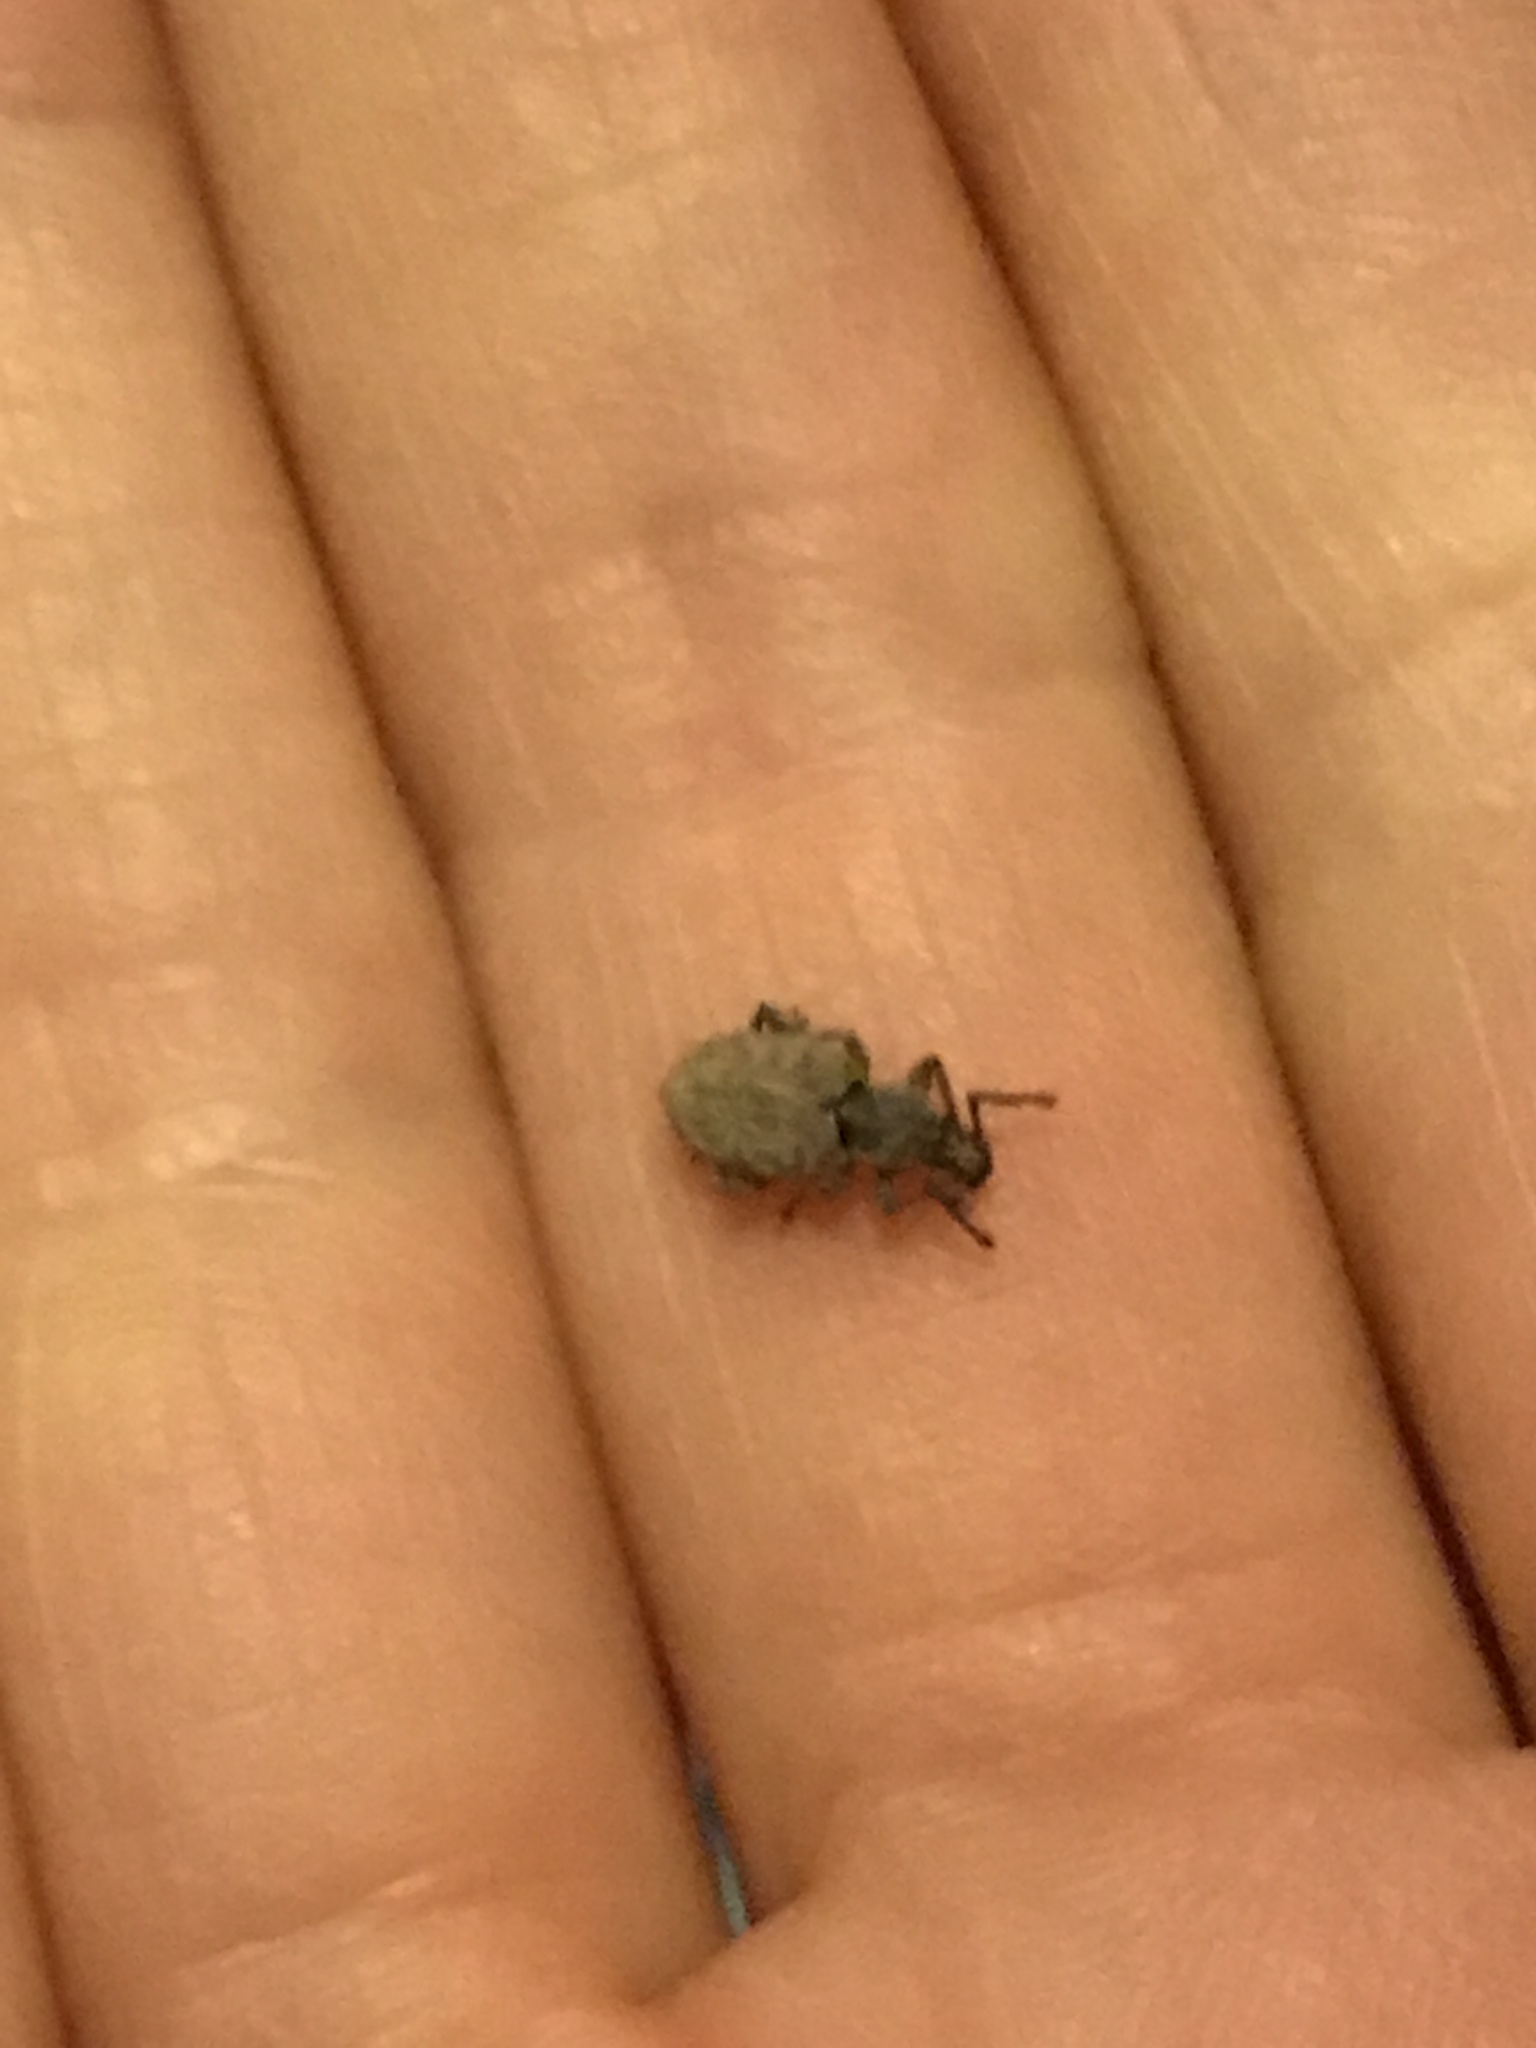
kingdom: Animalia
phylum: Arthropoda
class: Insecta
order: Coleoptera
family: Curculionidae
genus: Otiorhynchus
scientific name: Otiorhynchus singularis
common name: Clay-coloured weevil
